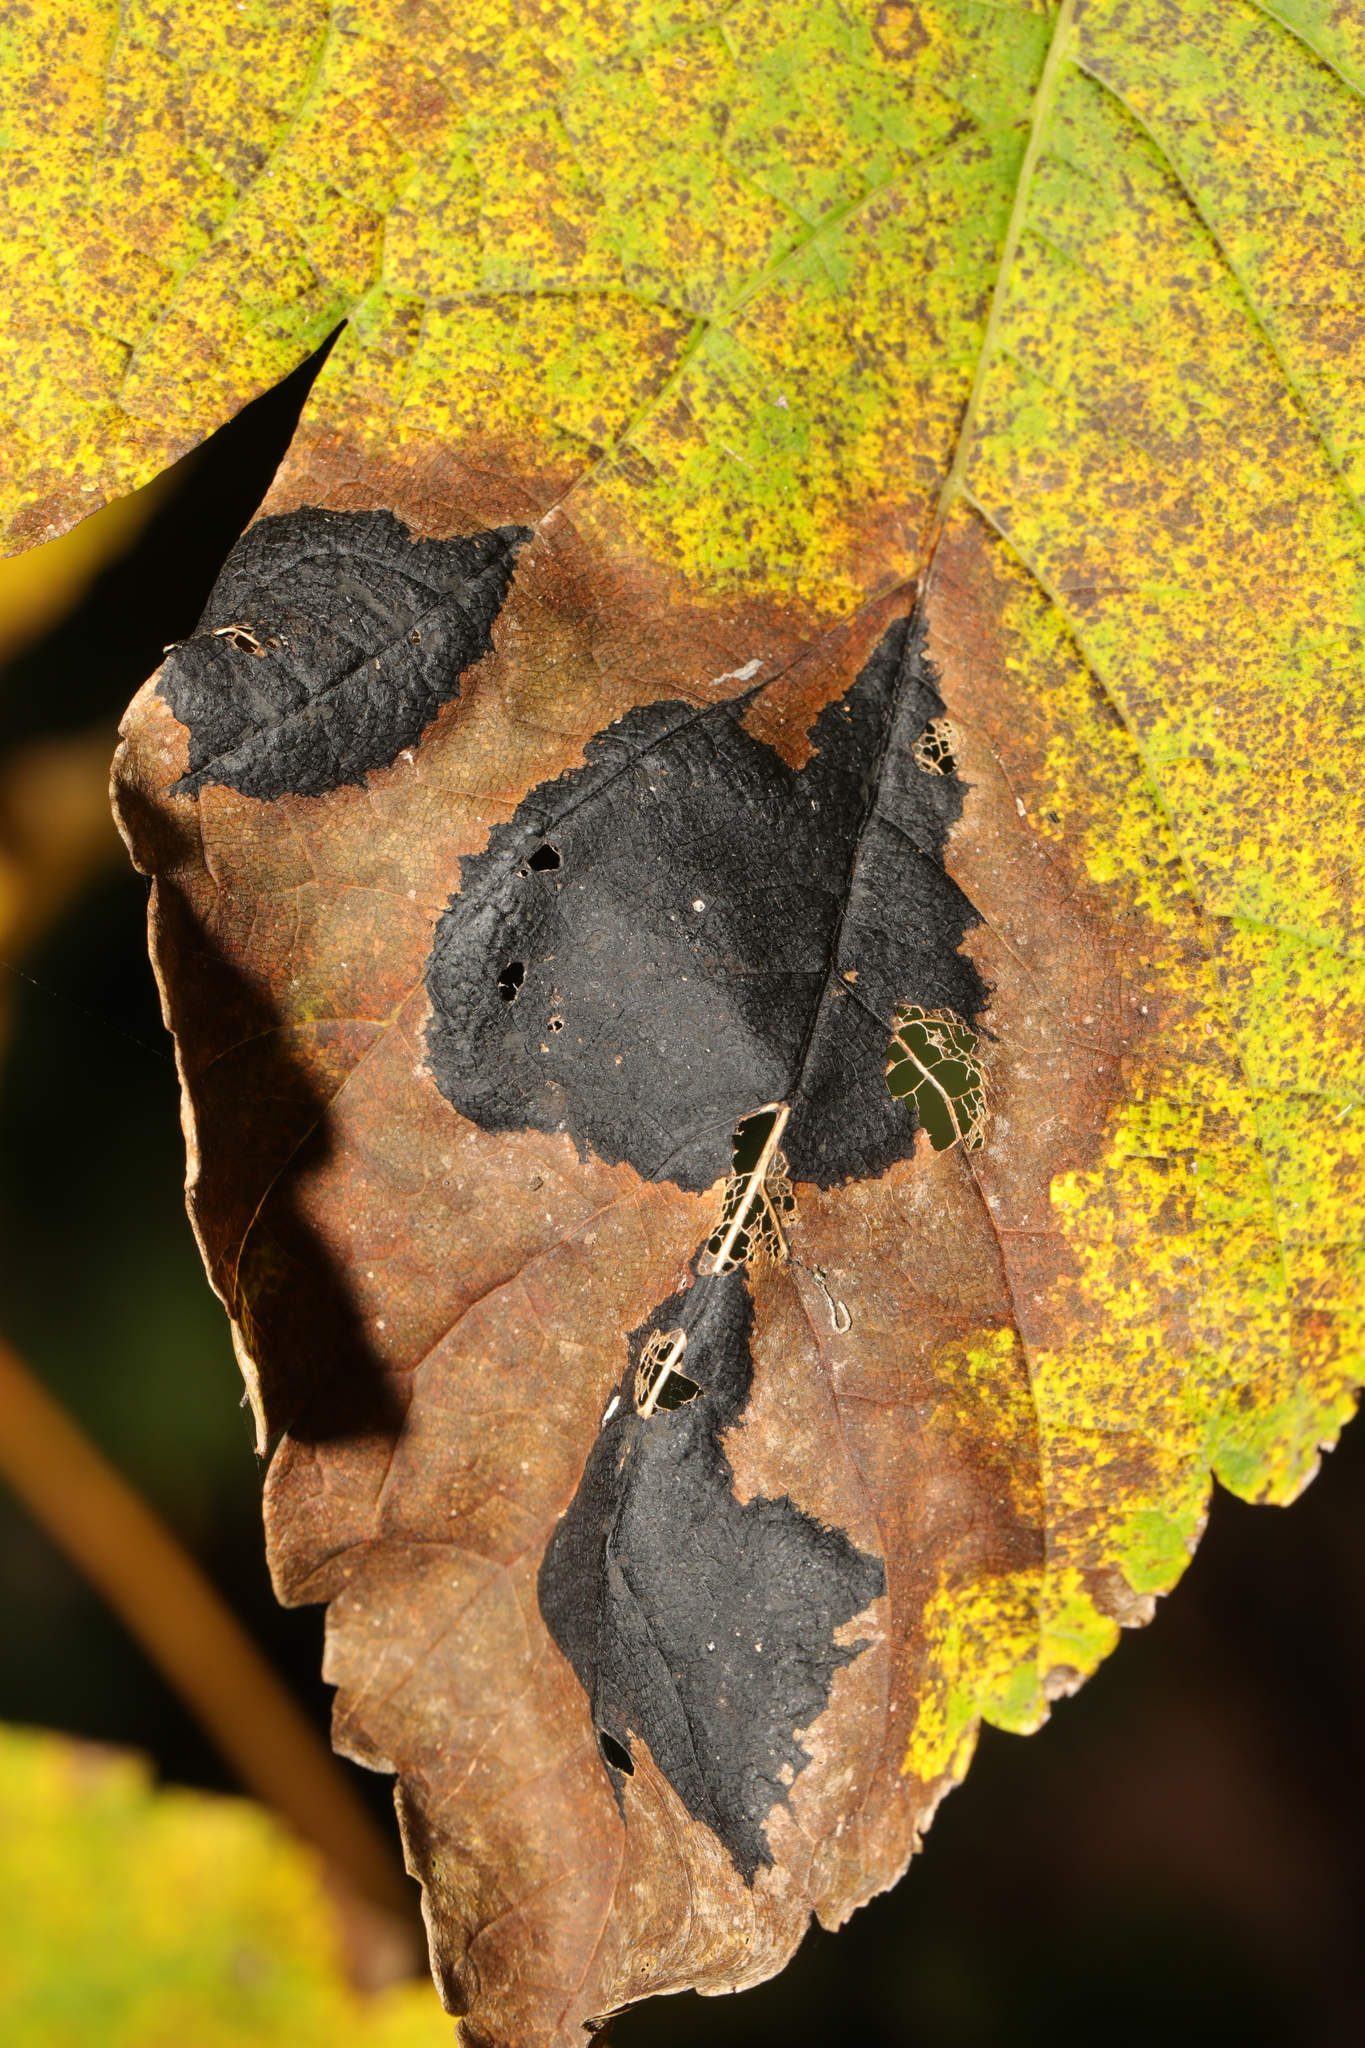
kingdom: Fungi
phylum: Ascomycota
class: Leotiomycetes
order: Rhytismatales
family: Rhytismataceae
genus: Rhytisma
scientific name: Rhytisma acerinum
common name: European tar spot
